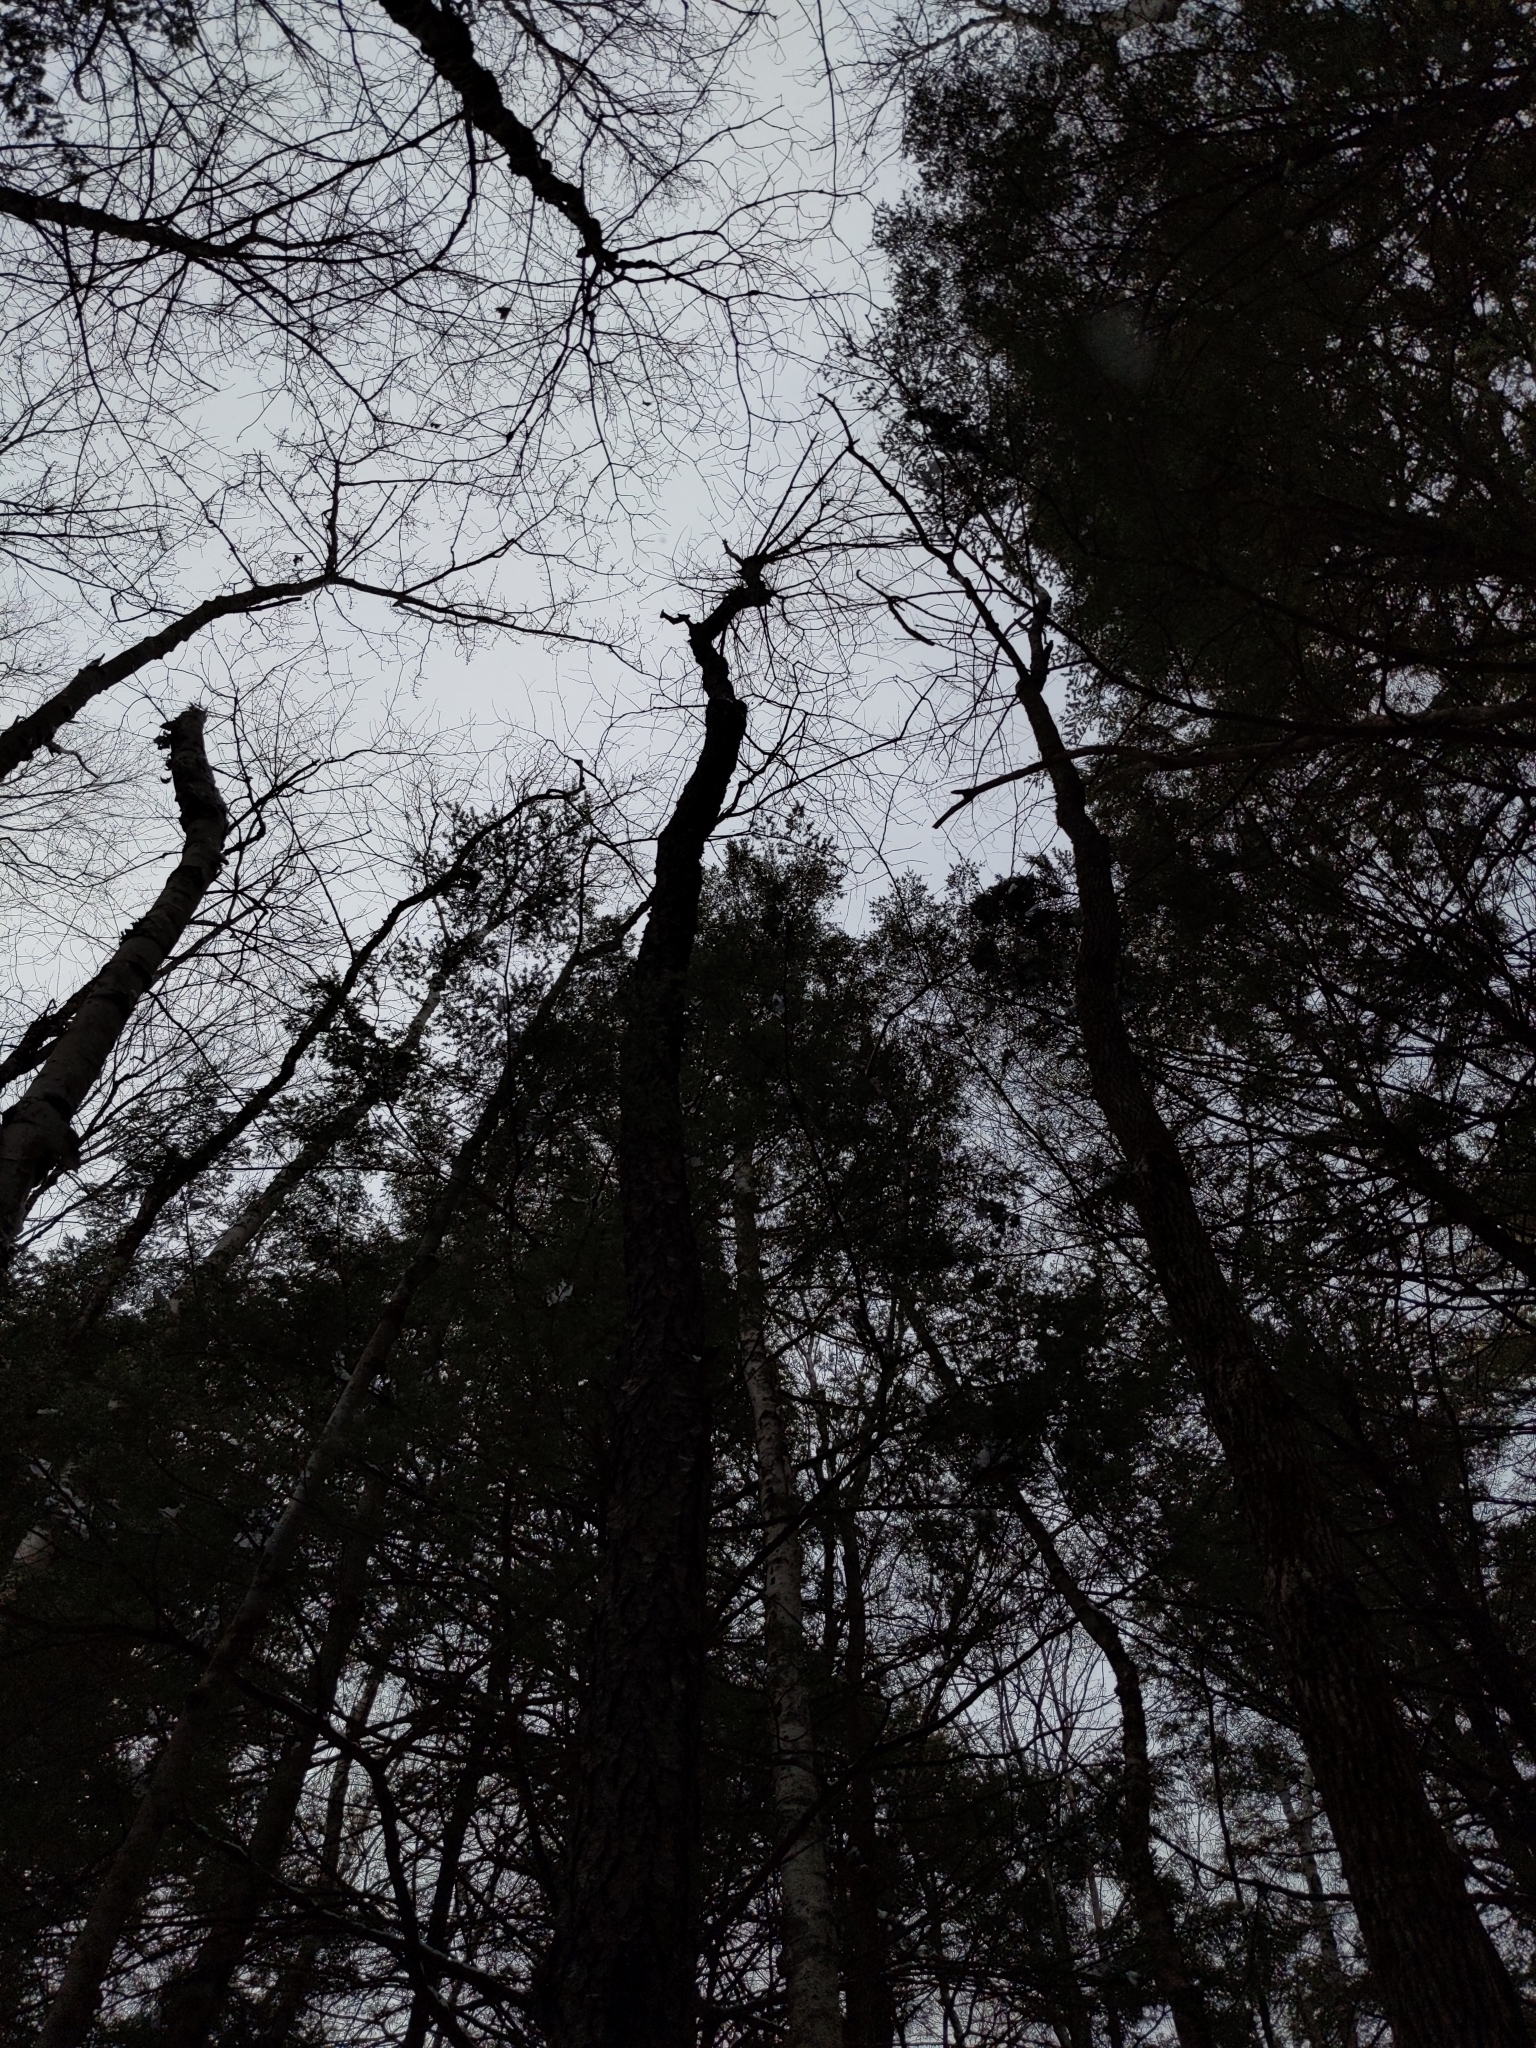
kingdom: Plantae
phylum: Tracheophyta
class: Magnoliopsida
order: Rosales
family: Rosaceae
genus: Prunus
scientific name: Prunus serotina
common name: Black cherry
